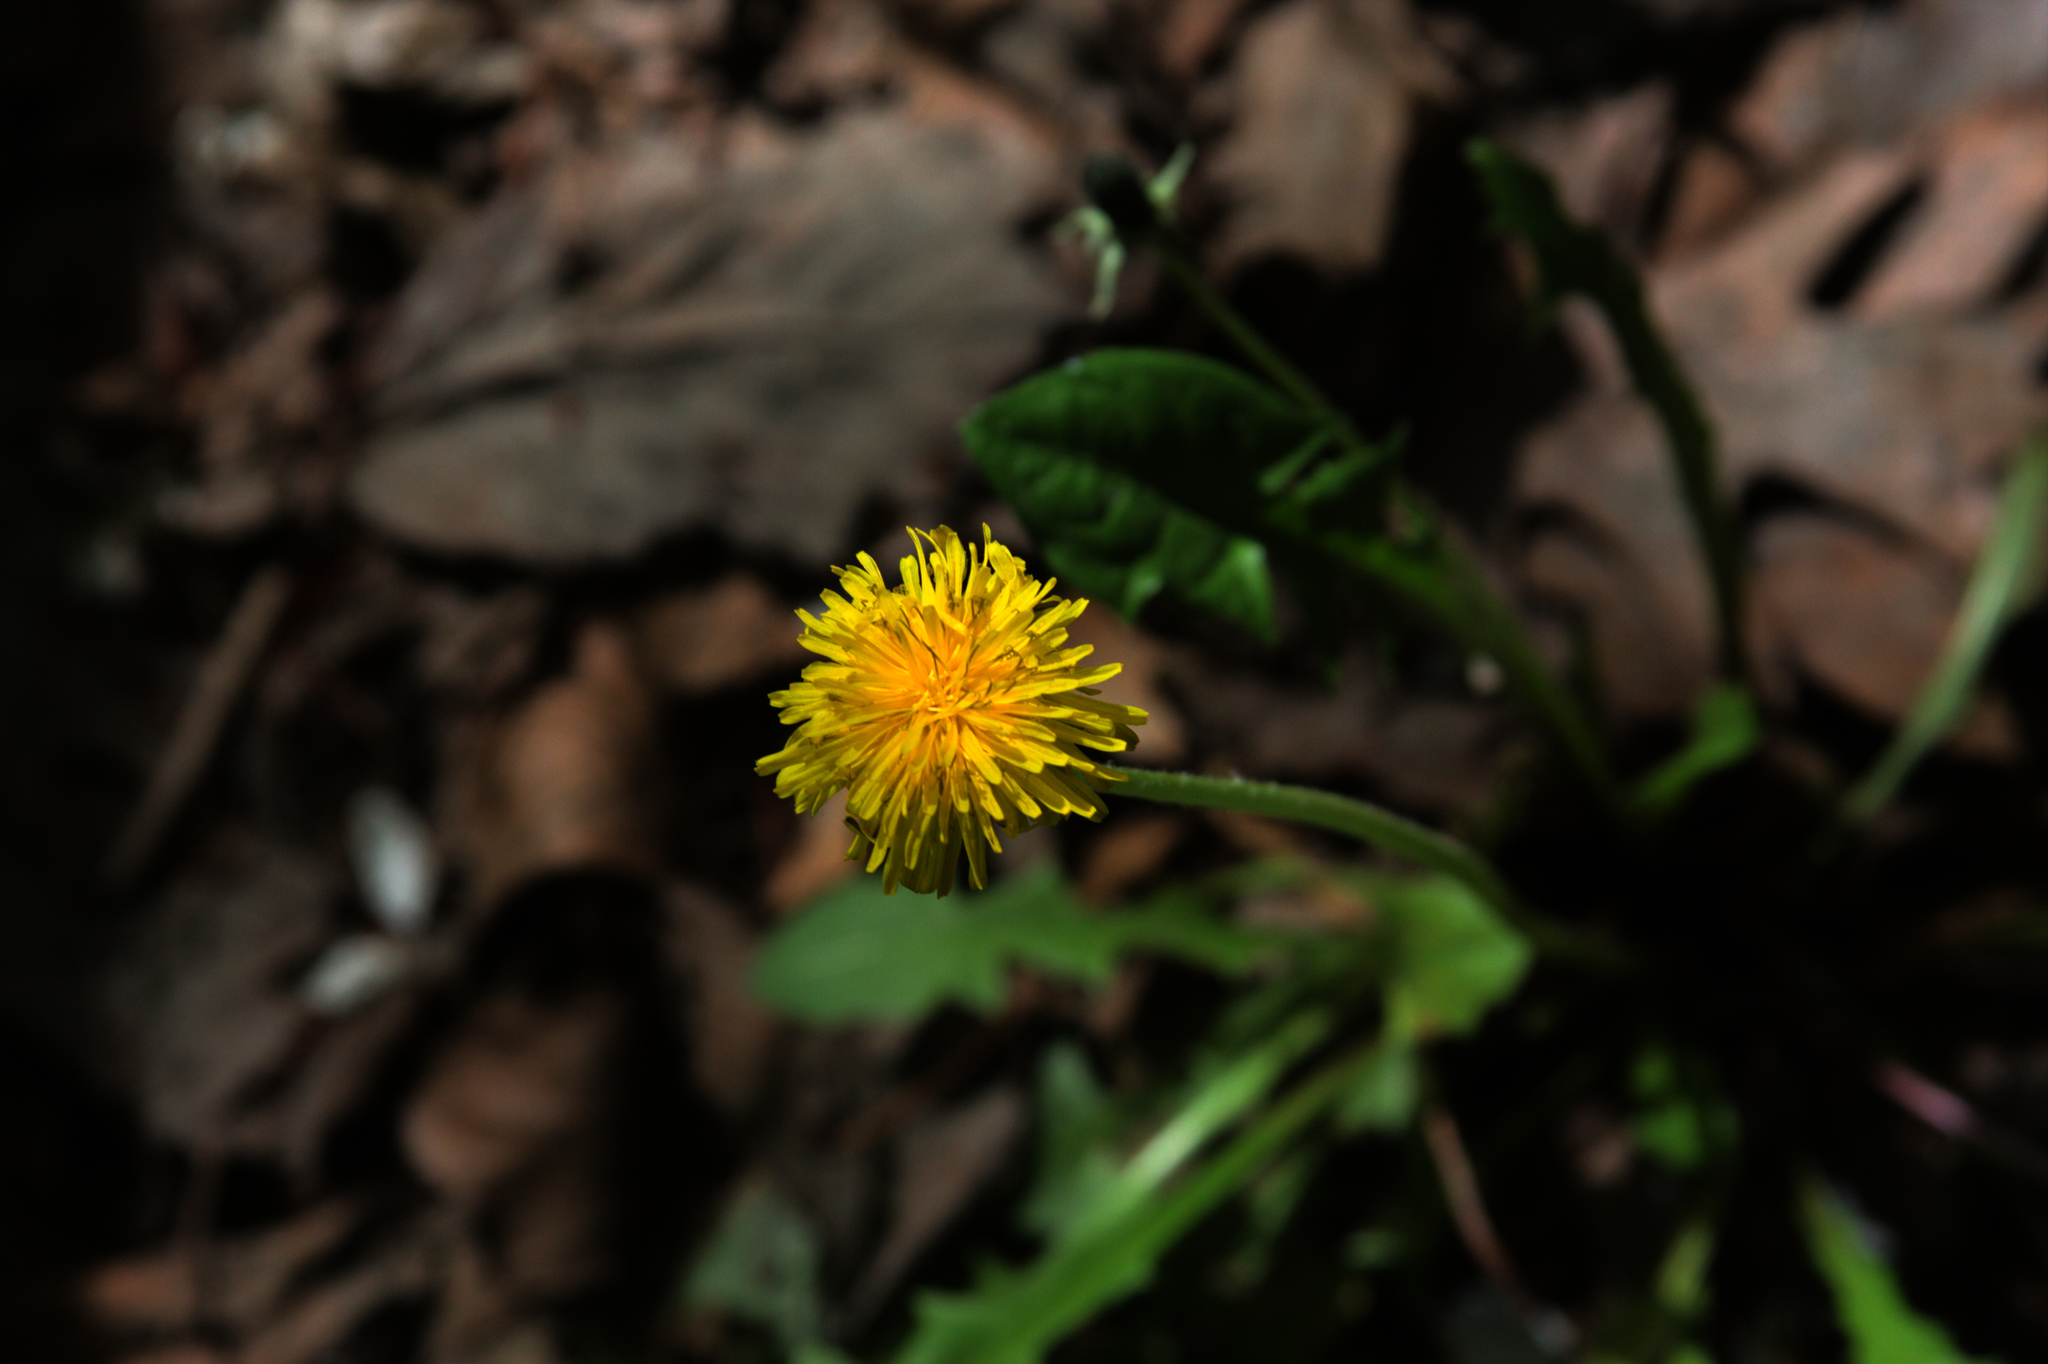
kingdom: Plantae
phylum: Tracheophyta
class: Magnoliopsida
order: Asterales
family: Asteraceae
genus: Taraxacum
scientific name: Taraxacum officinale
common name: Common dandelion
